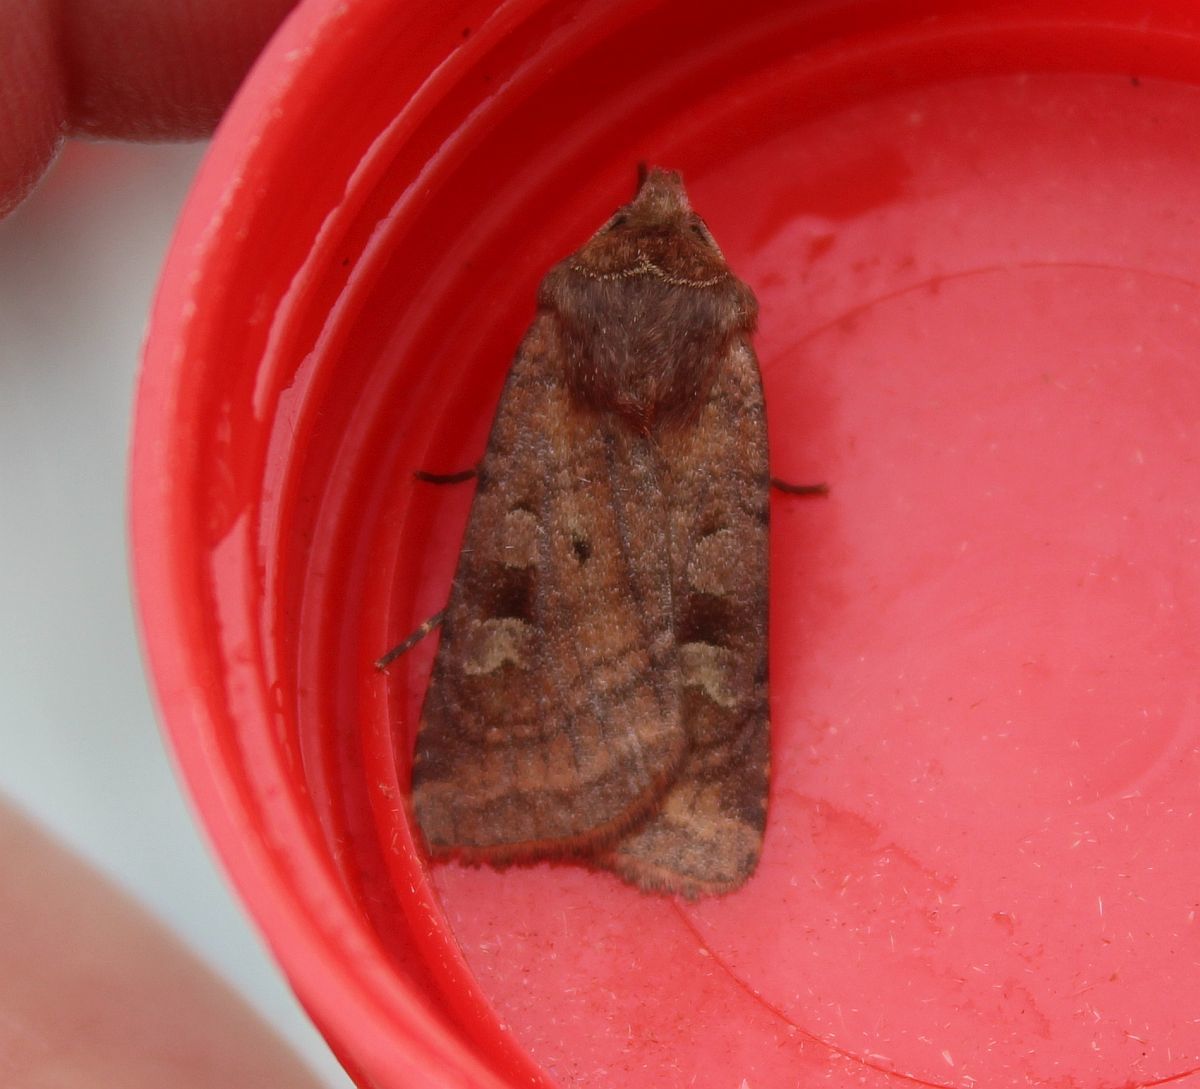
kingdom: Animalia
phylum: Arthropoda
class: Insecta
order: Lepidoptera
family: Noctuidae
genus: Diarsia
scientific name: Diarsia rubi
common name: Small square-spot
